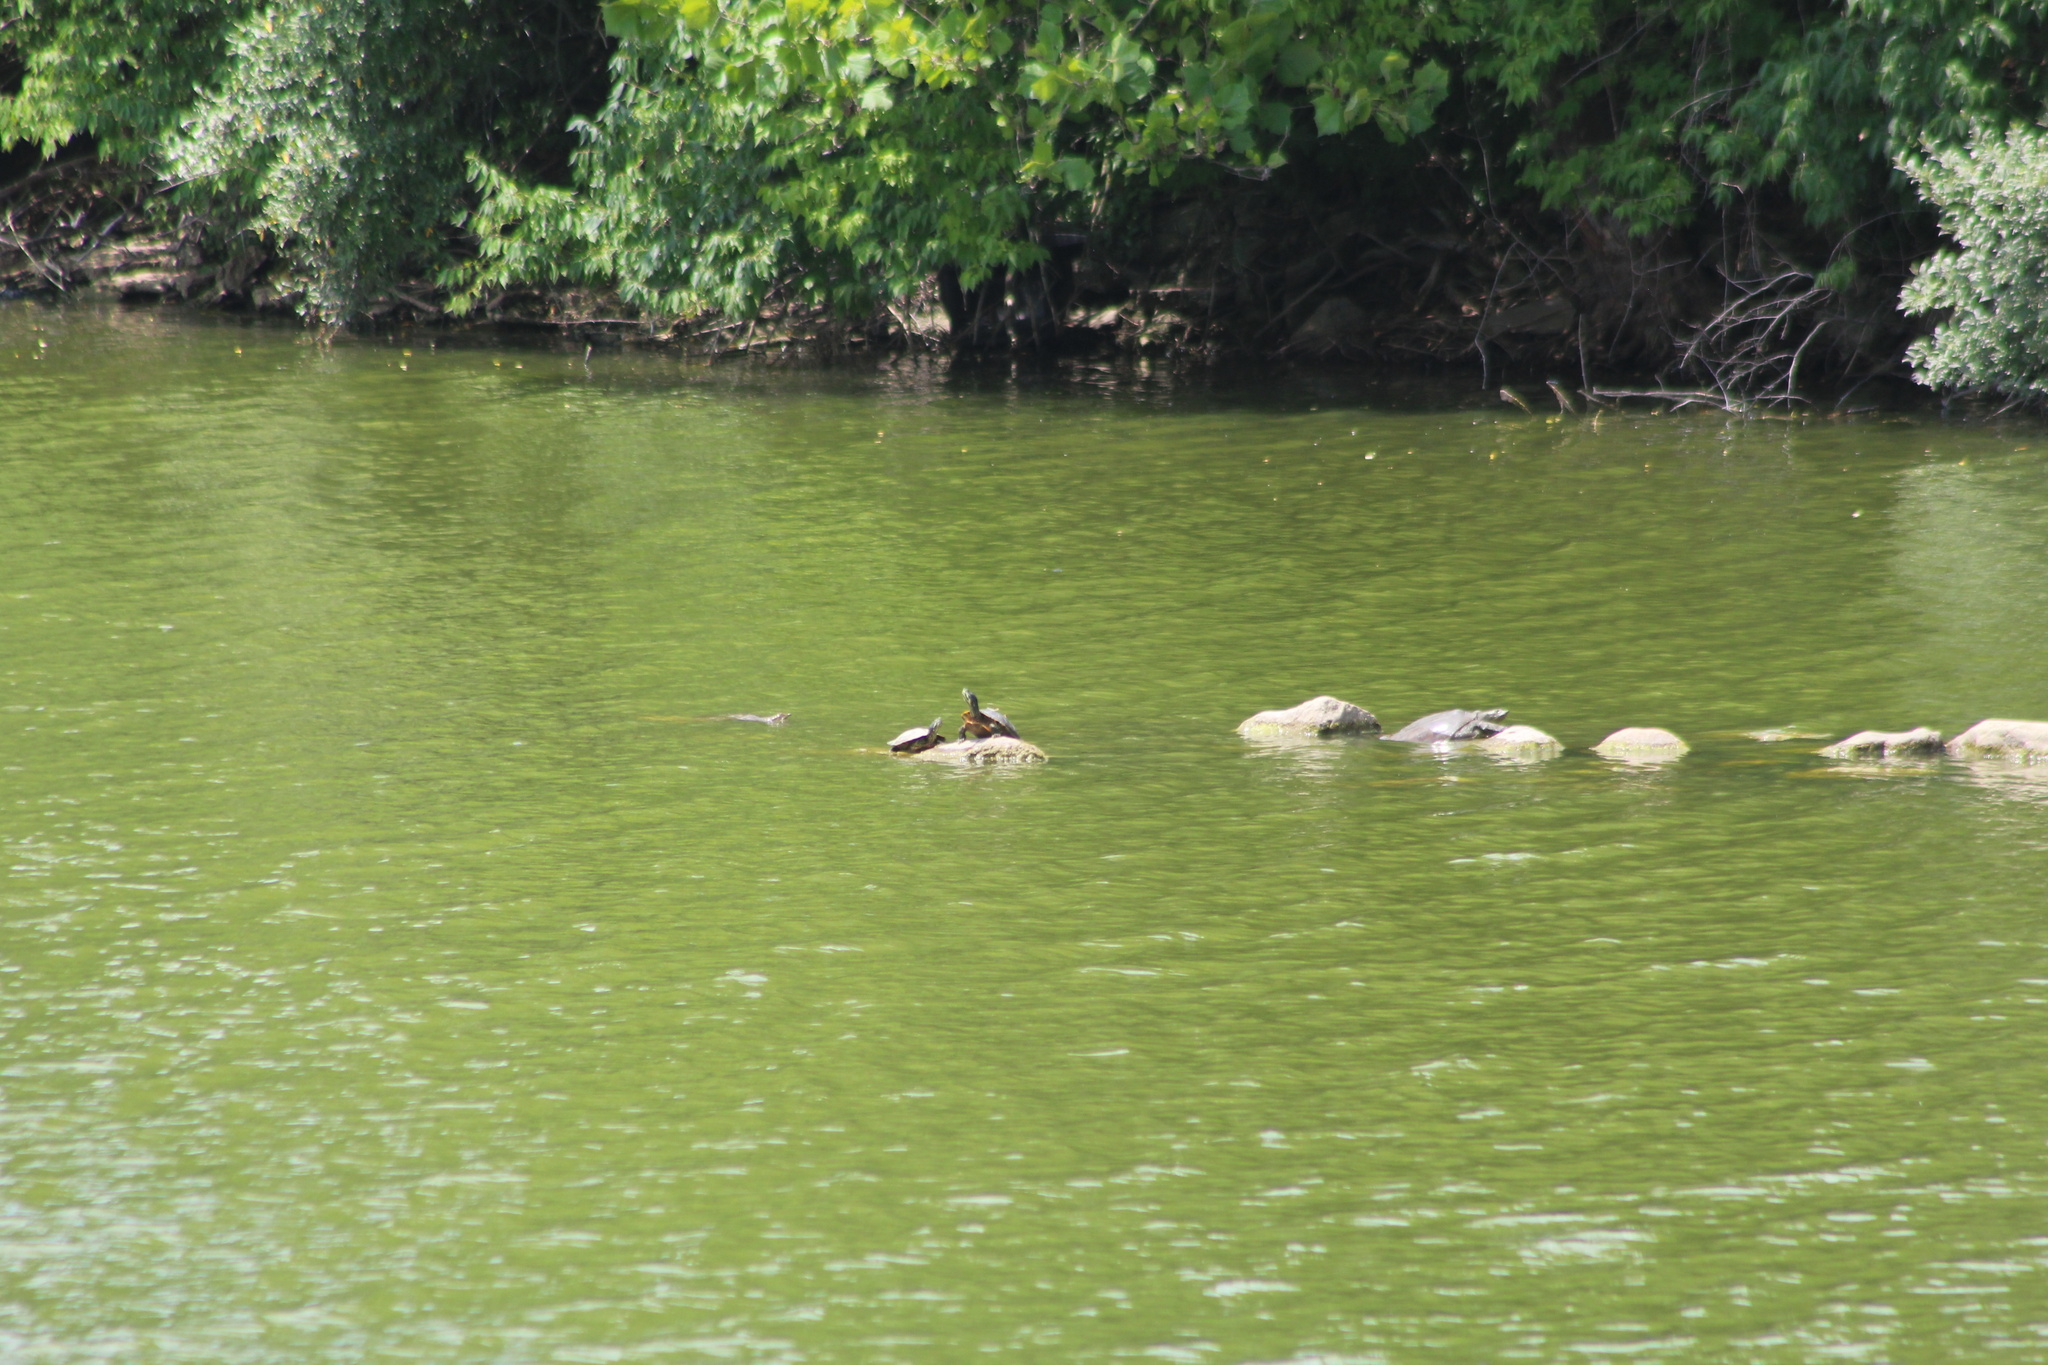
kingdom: Animalia
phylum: Chordata
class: Testudines
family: Emydidae
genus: Trachemys
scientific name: Trachemys scripta
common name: Slider
